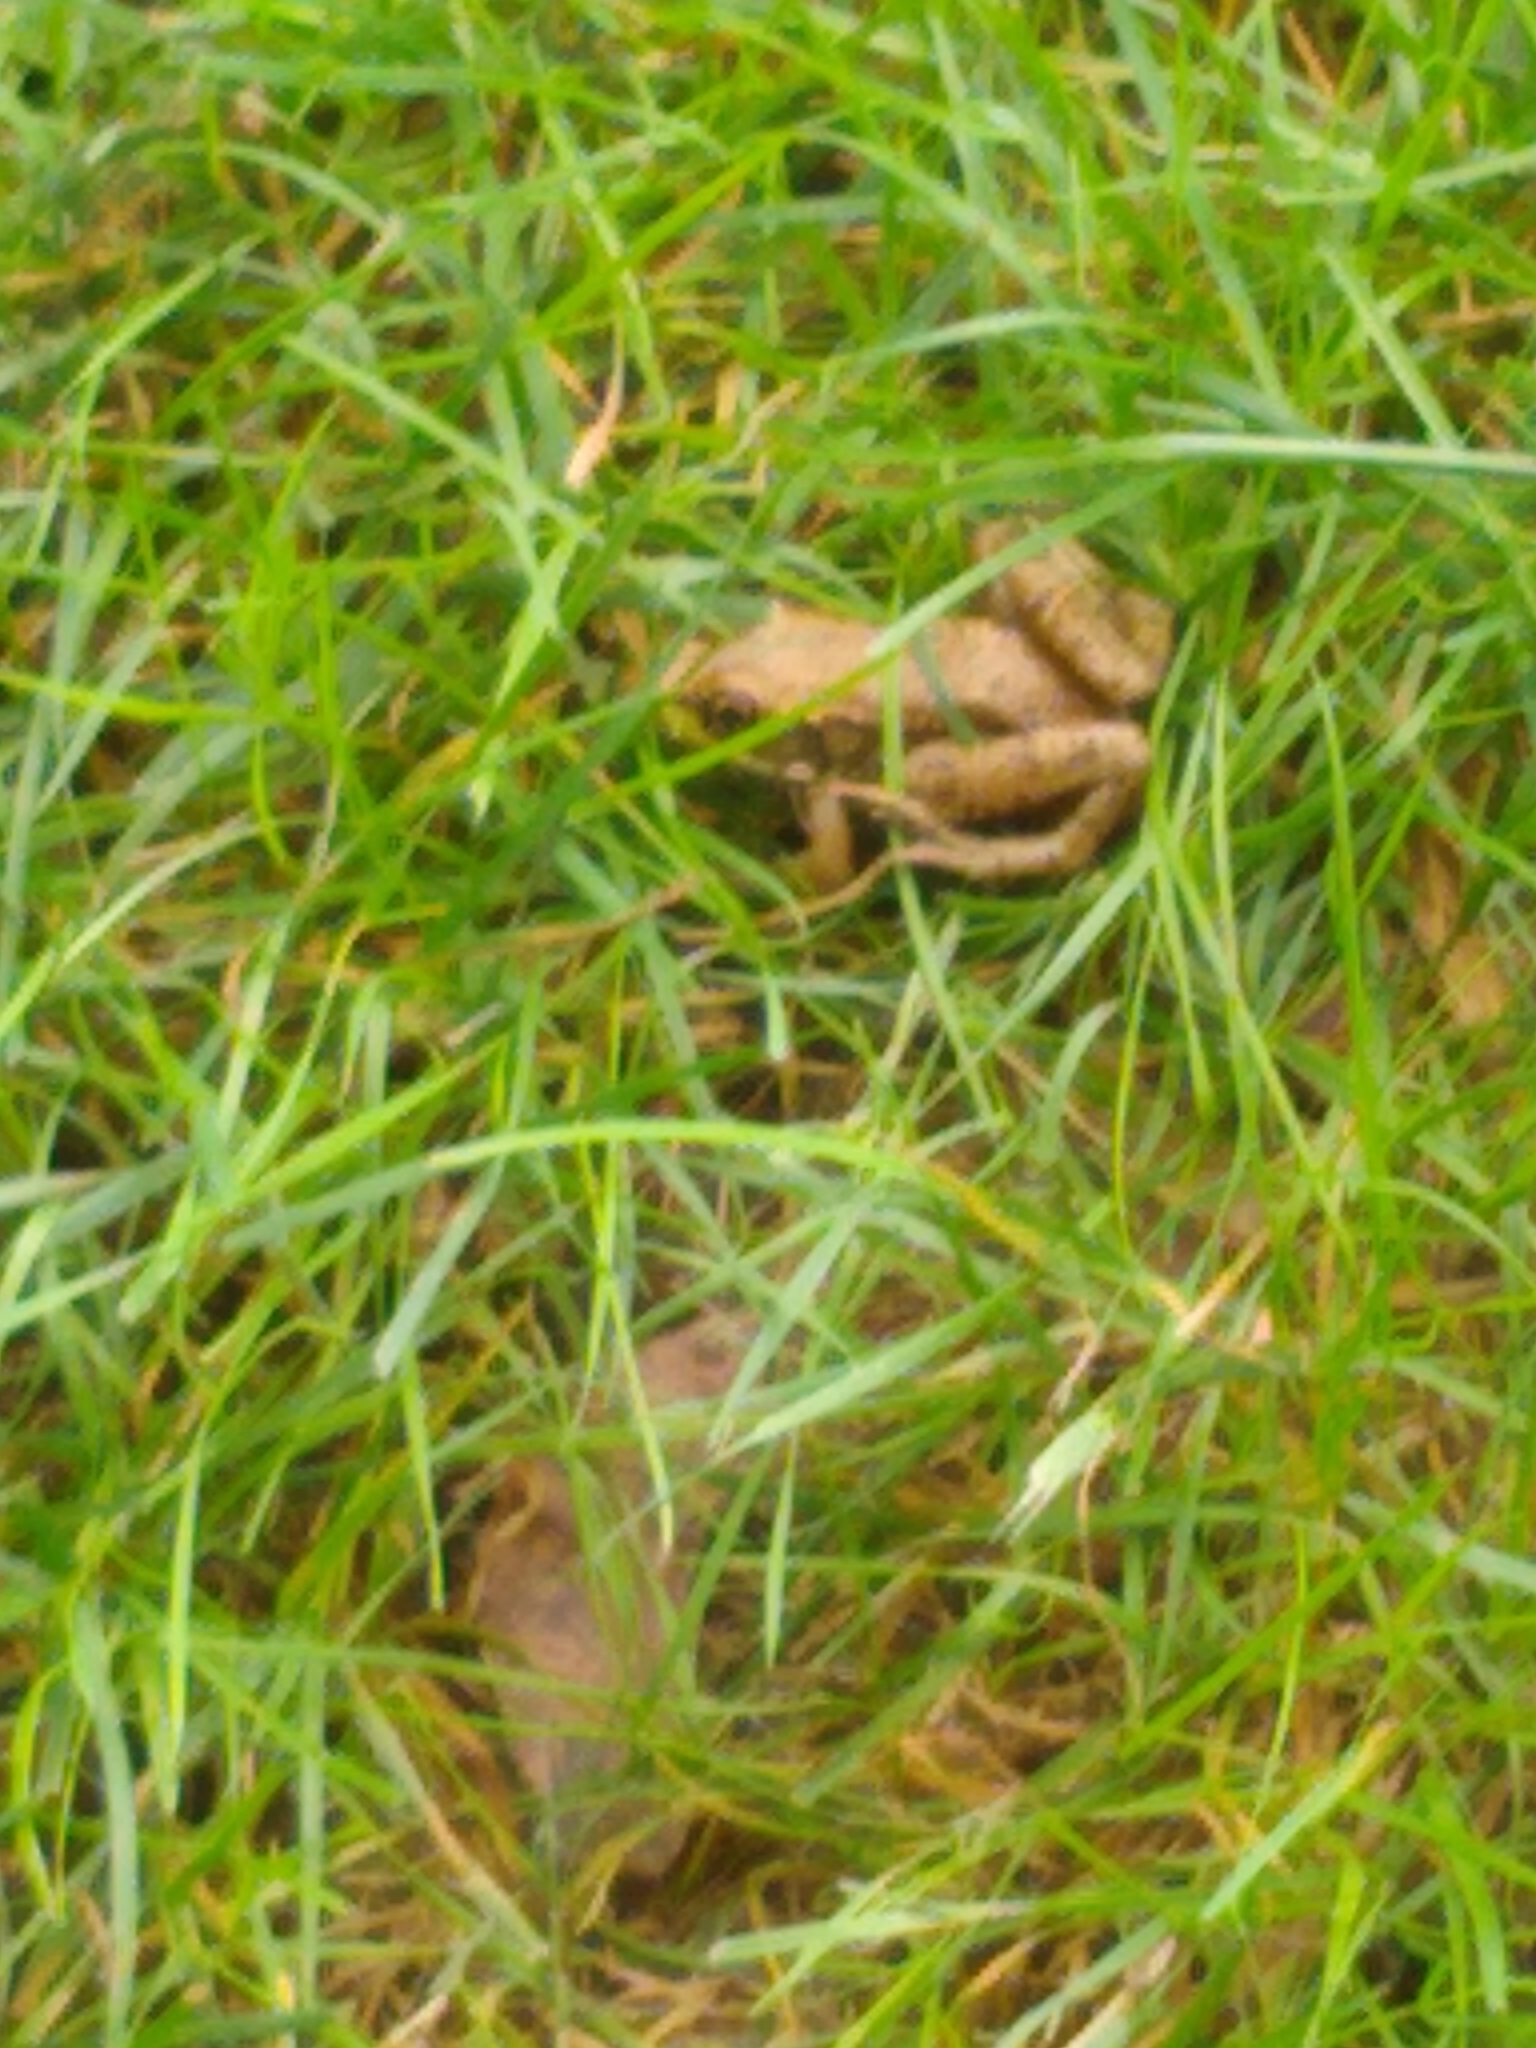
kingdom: Animalia
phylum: Chordata
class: Amphibia
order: Anura
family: Ranidae
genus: Lithobates
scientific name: Lithobates clamitans
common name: Green frog
